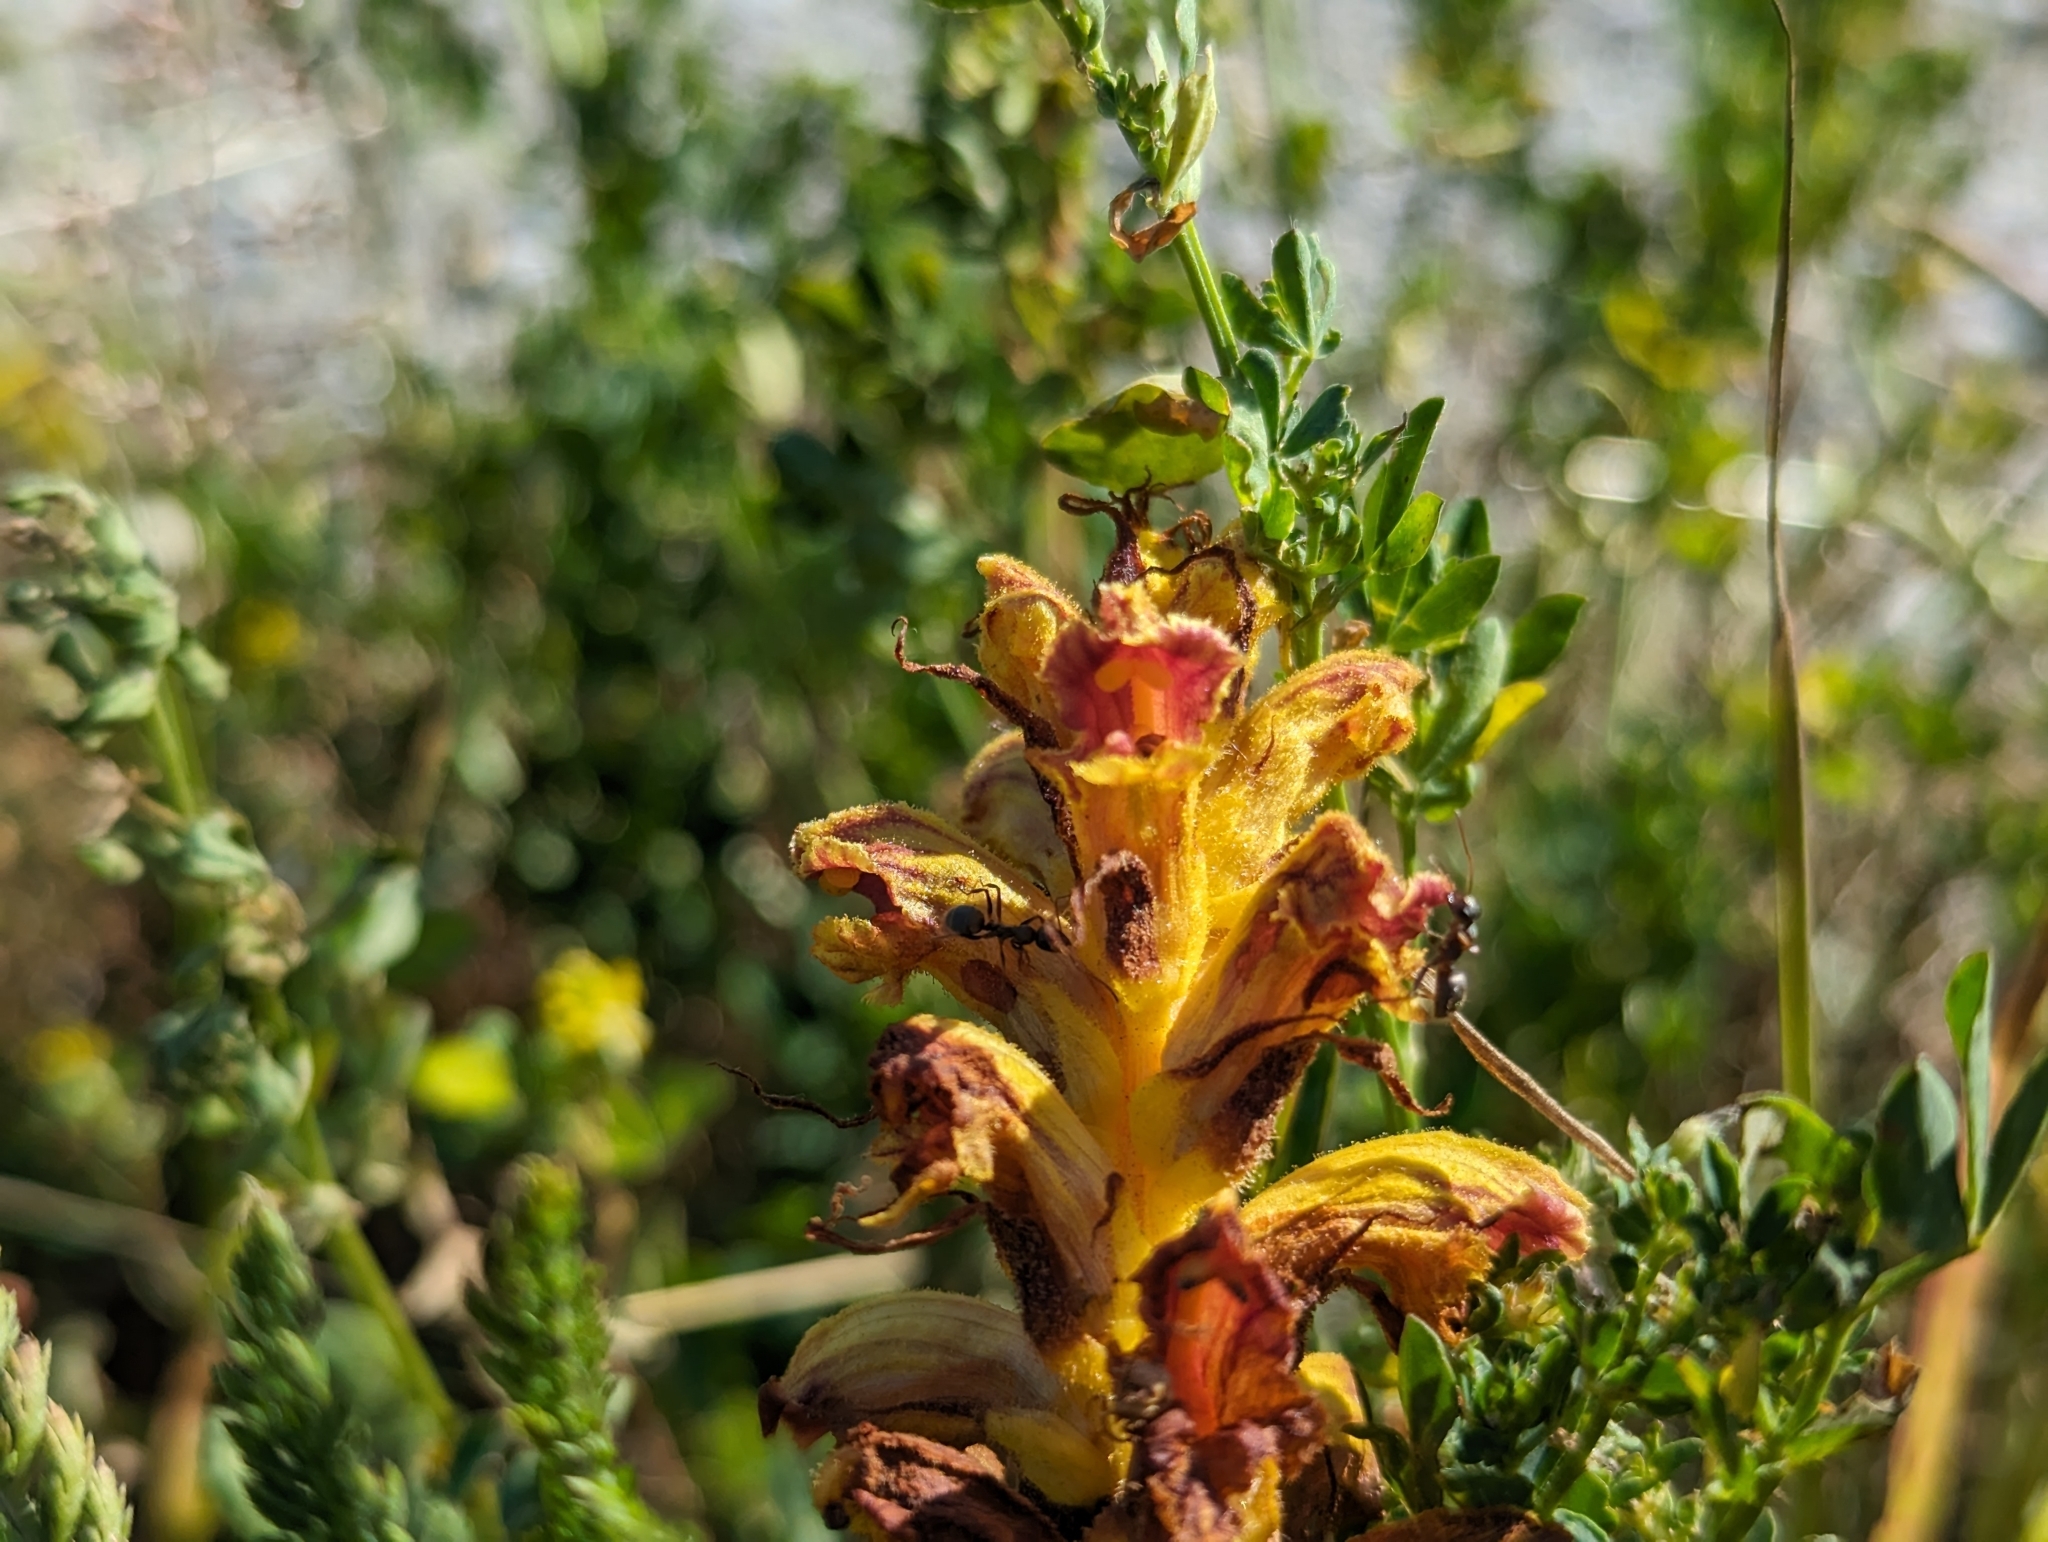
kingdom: Plantae
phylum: Tracheophyta
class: Magnoliopsida
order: Lamiales
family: Orobanchaceae
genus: Orobanche
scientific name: Orobanche gracilis
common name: Slender broomrape
